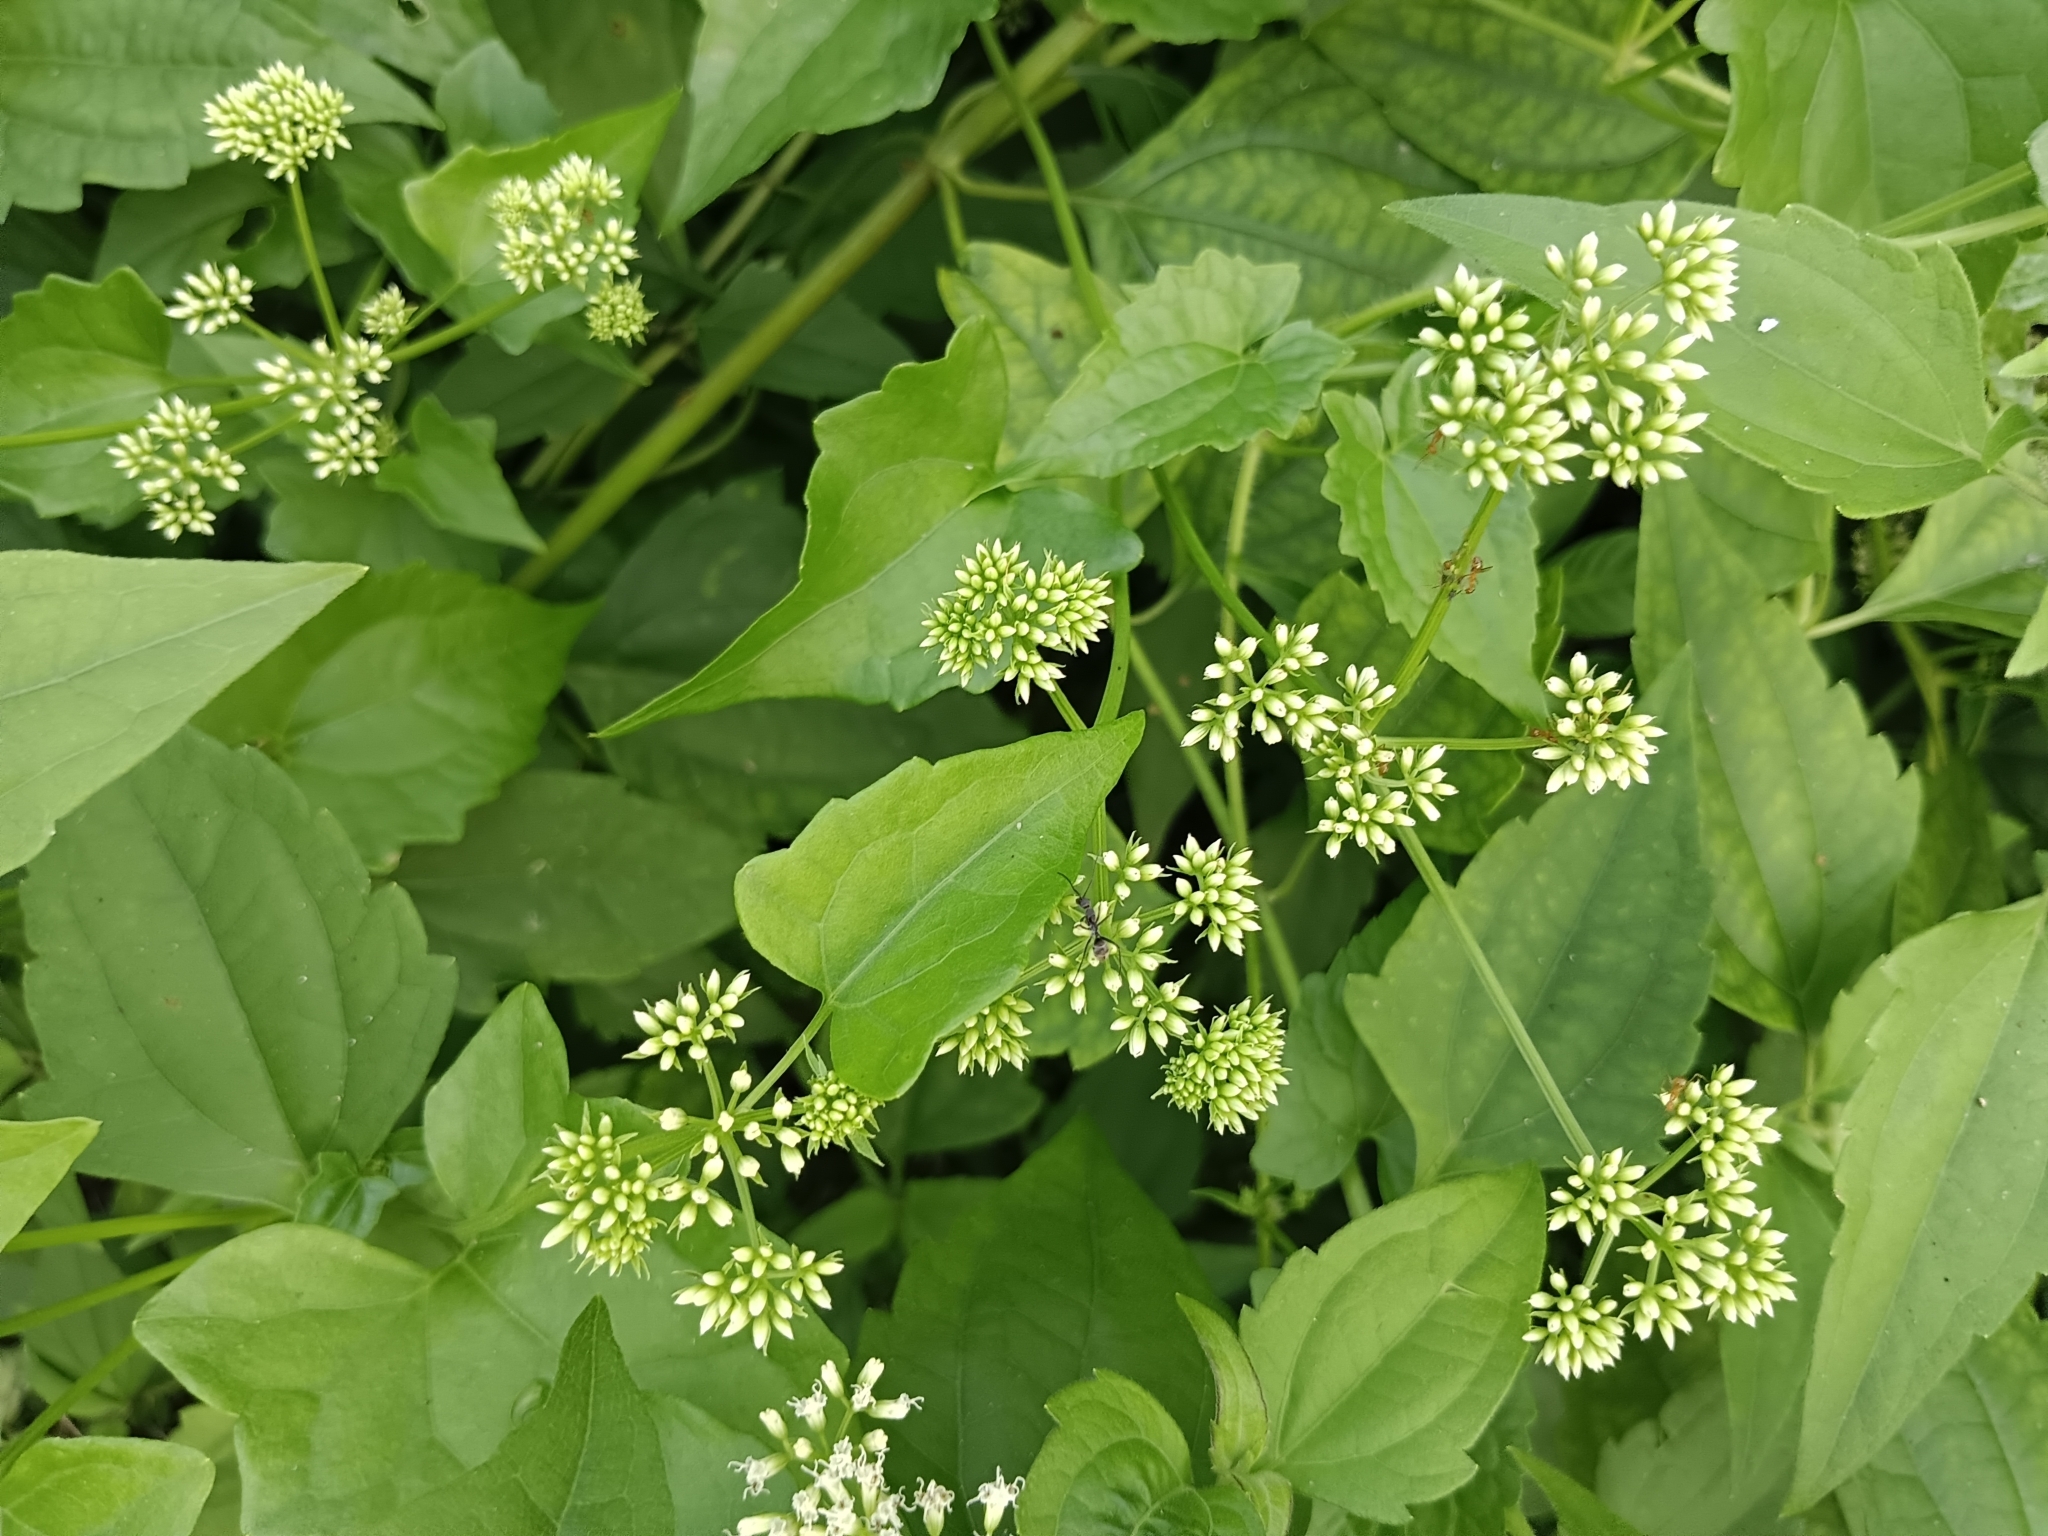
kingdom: Plantae
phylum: Tracheophyta
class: Magnoliopsida
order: Asterales
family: Asteraceae
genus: Mikania
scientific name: Mikania micrantha
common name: Mile-a-minute
